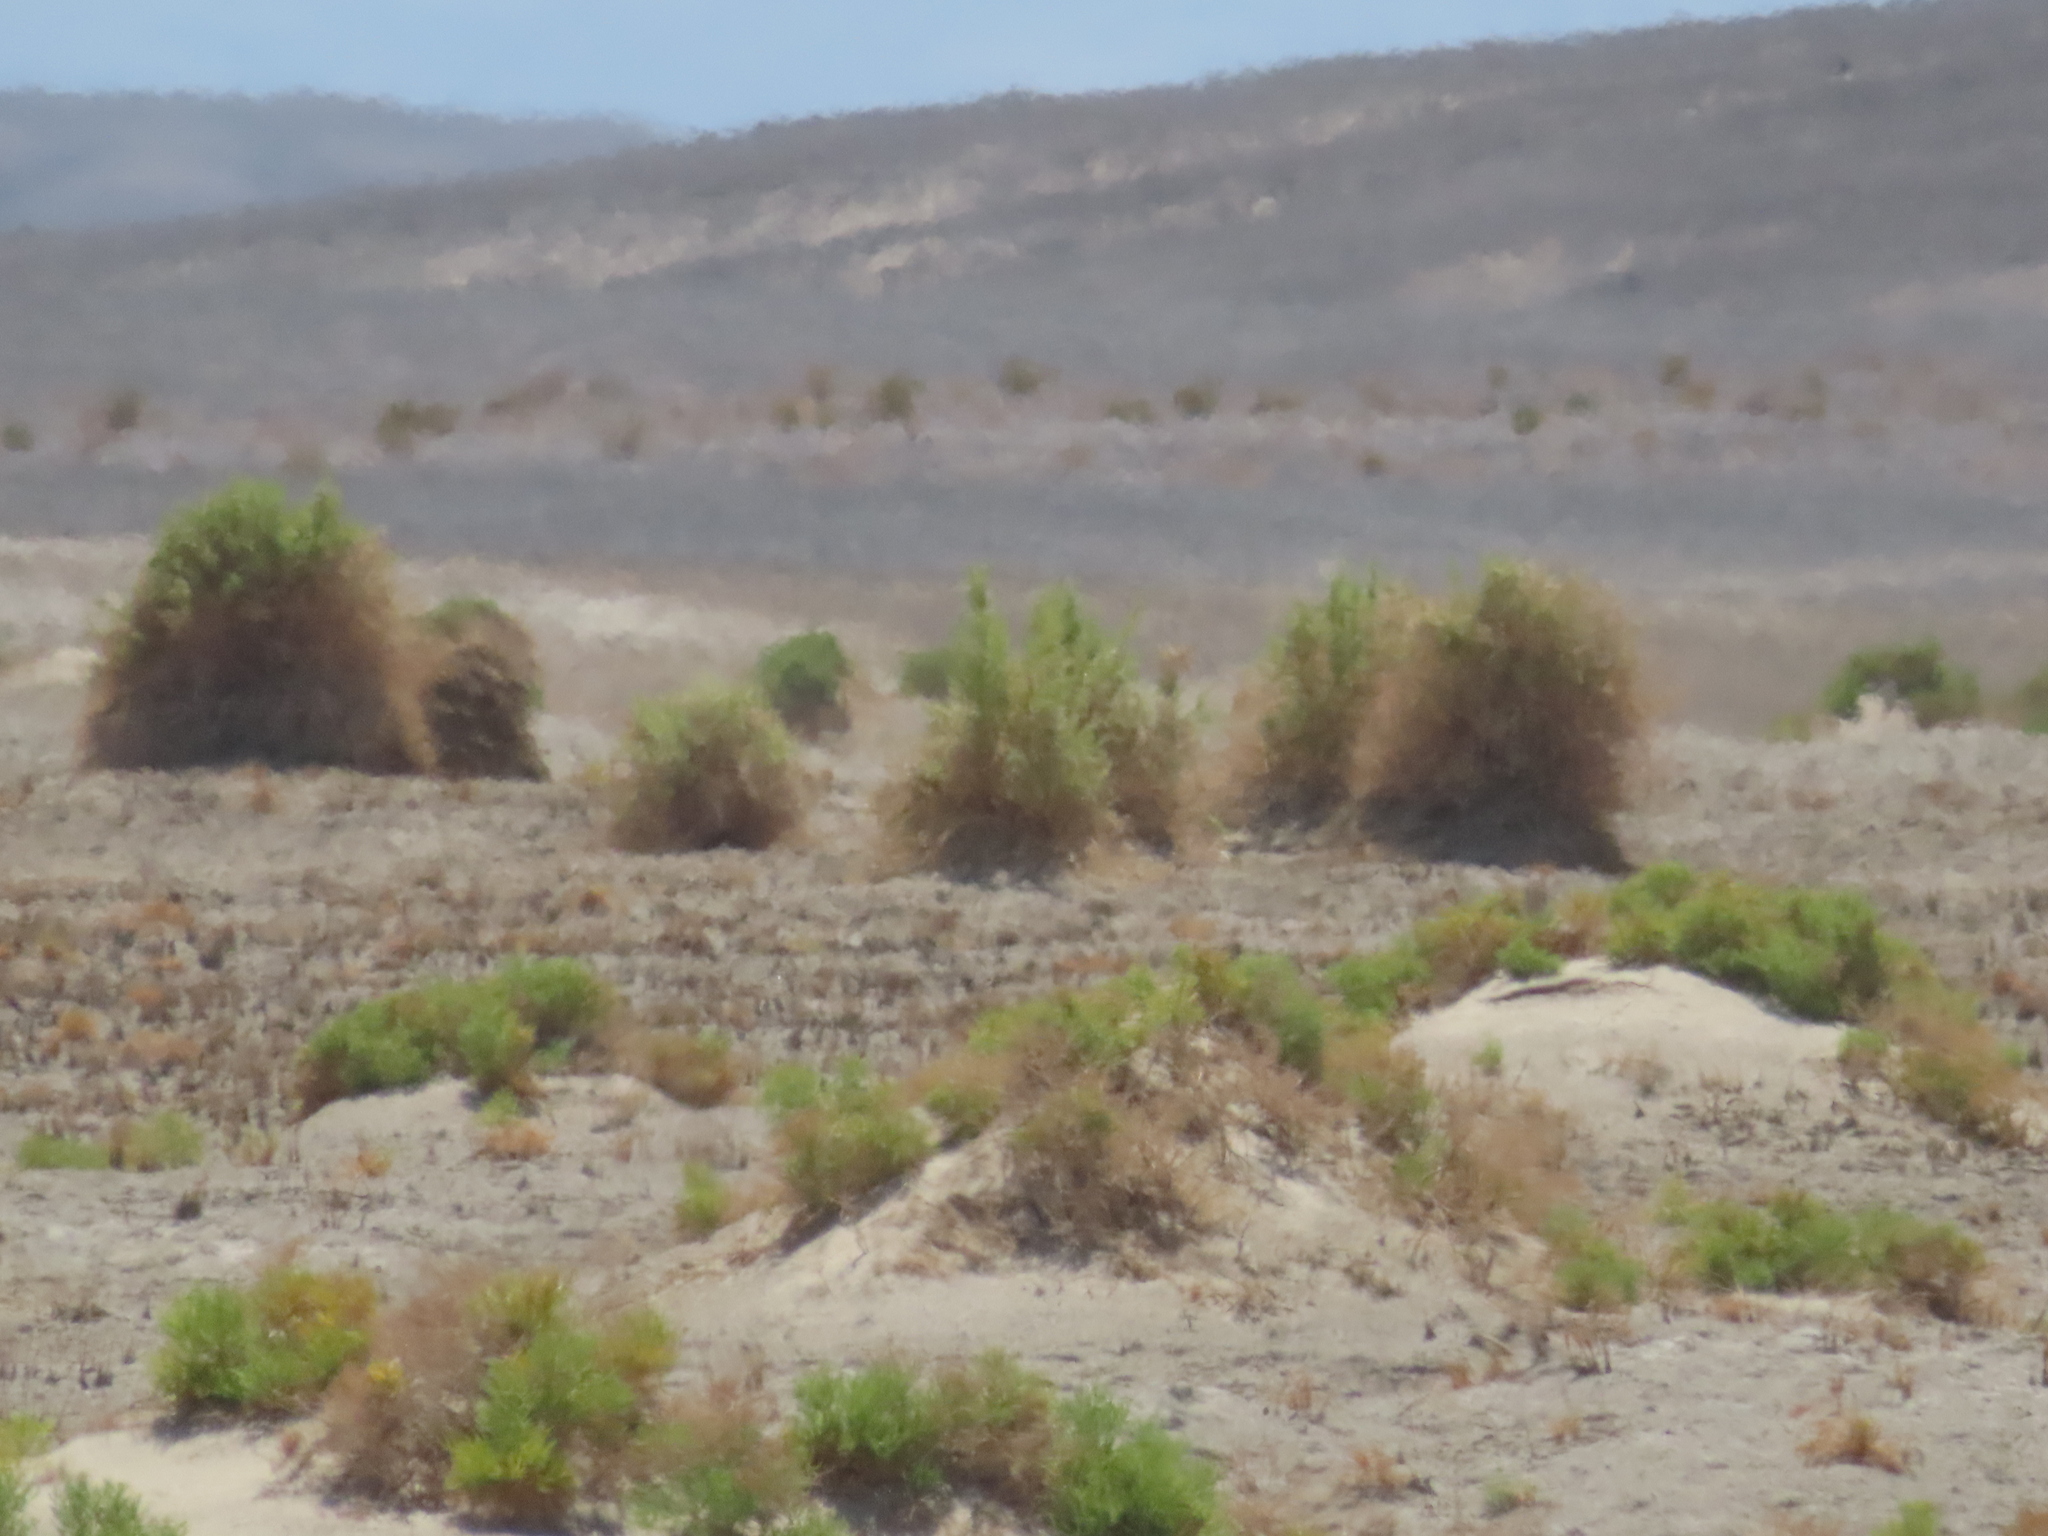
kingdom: Plantae
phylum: Tracheophyta
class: Magnoliopsida
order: Asterales
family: Asteraceae
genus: Pluchea
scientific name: Pluchea sericea
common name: Arrow-weed
